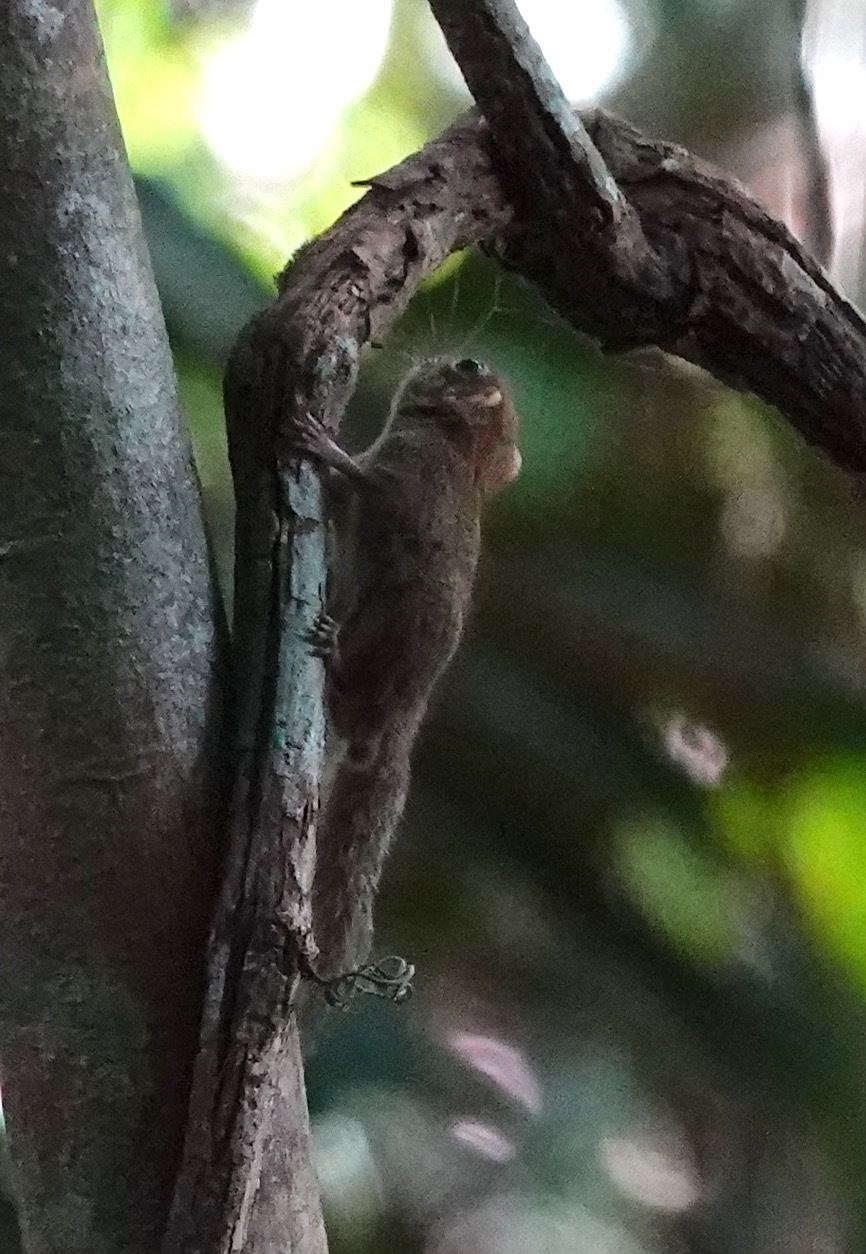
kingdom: Animalia
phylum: Chordata
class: Mammalia
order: Rodentia
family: Sciuridae
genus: Exilisciurus
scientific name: Exilisciurus exilis
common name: Least pygmy squirrel
